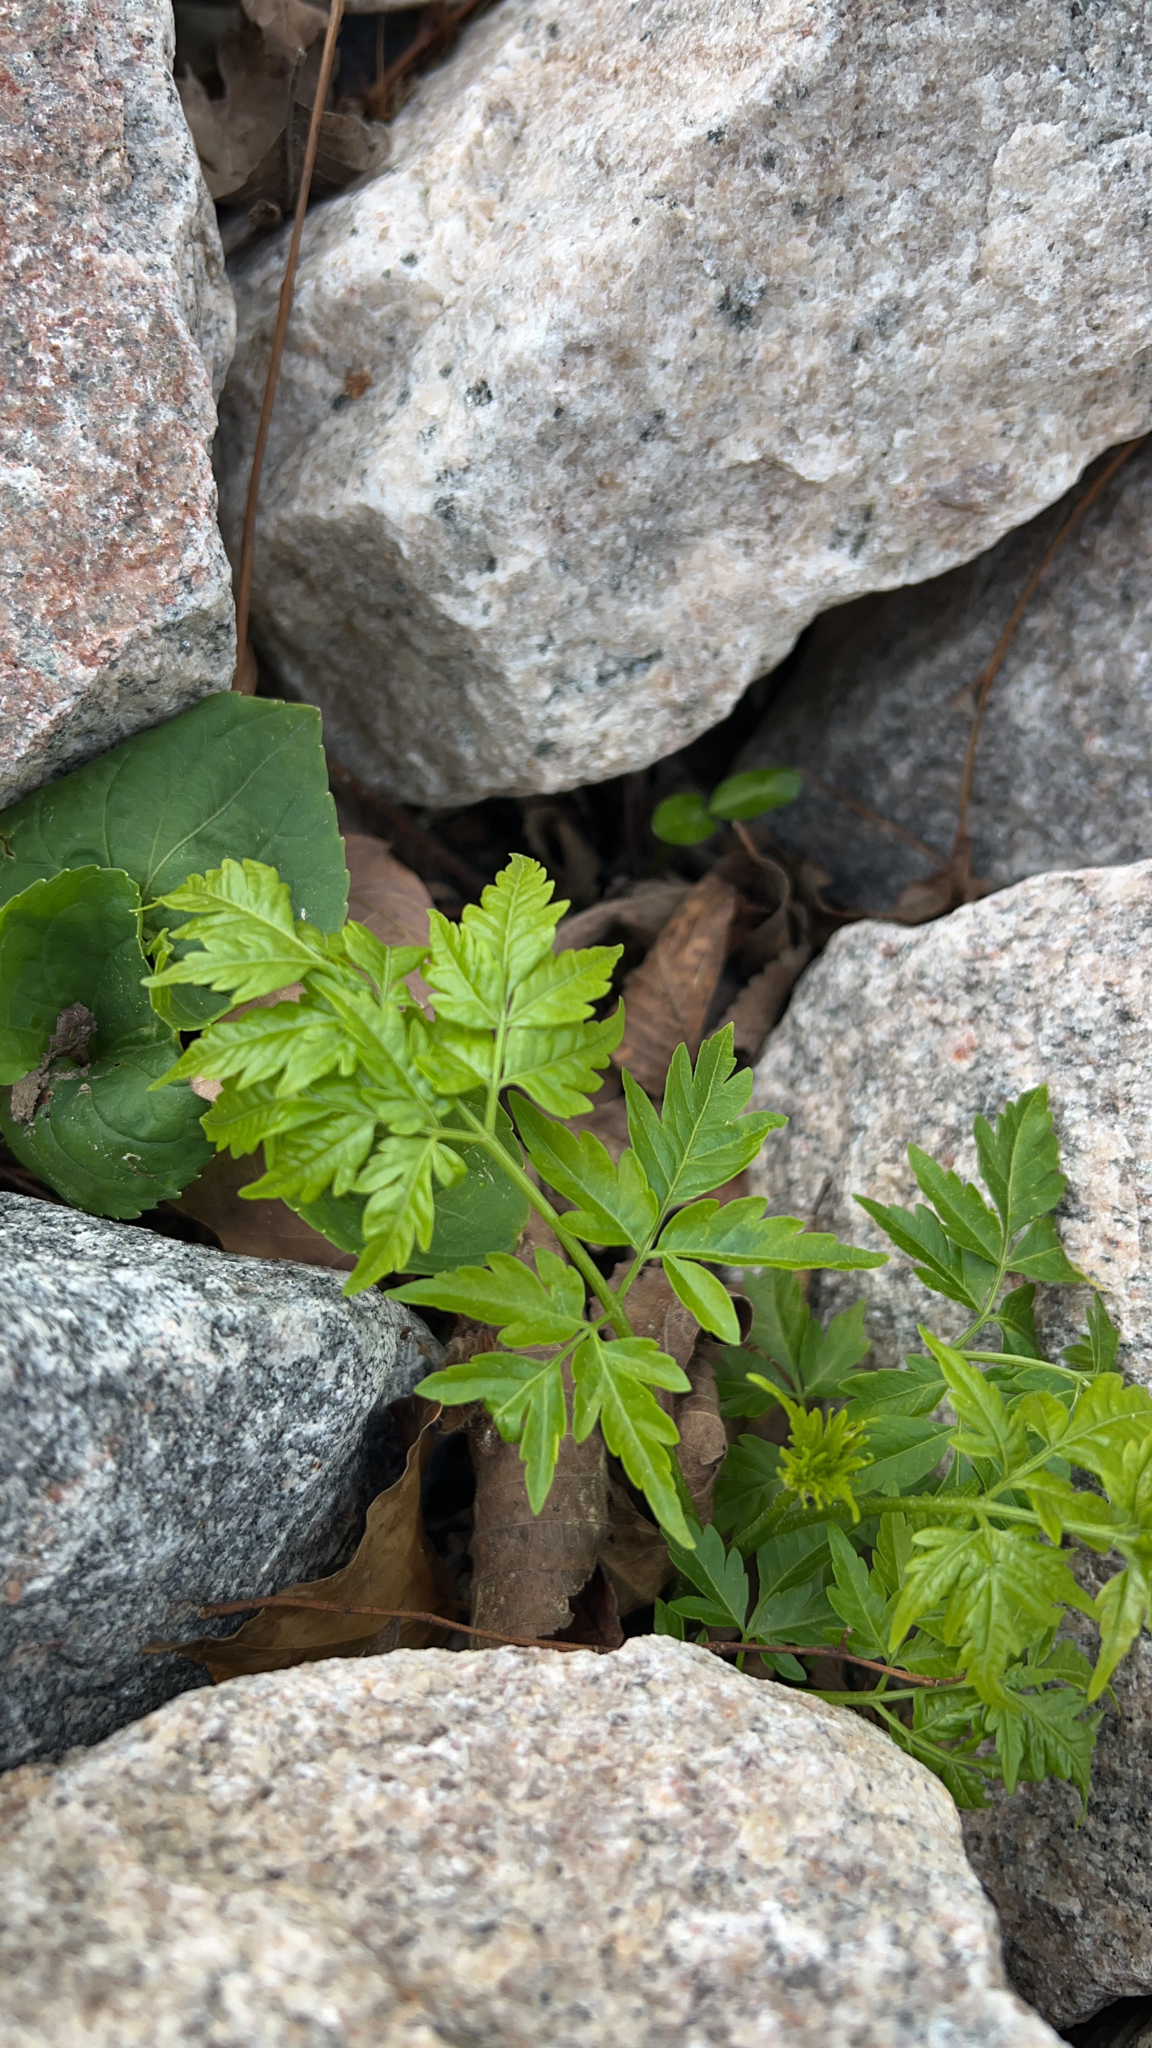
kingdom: Plantae
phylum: Tracheophyta
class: Magnoliopsida
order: Sapindales
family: Meliaceae
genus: Melia
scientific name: Melia azedarach
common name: Chinaberrytree
